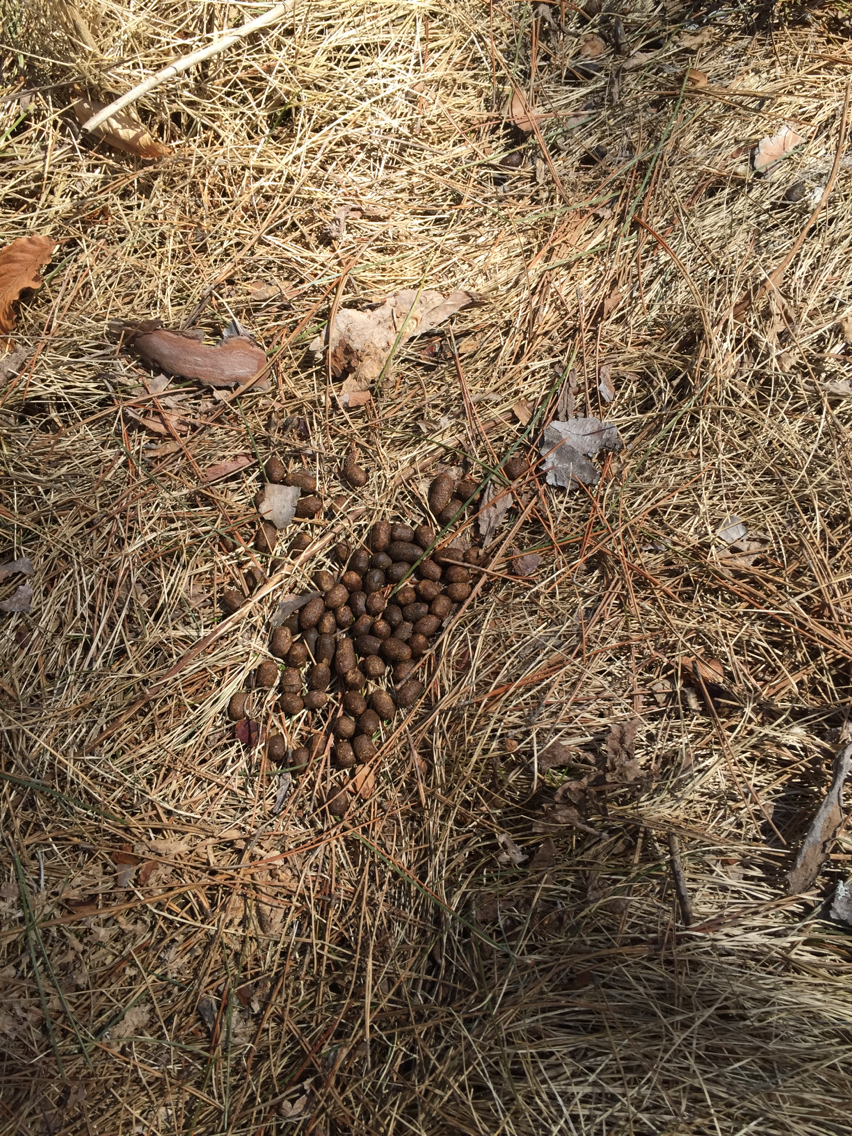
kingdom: Animalia
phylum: Chordata
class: Mammalia
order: Artiodactyla
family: Cervidae
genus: Odocoileus
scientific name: Odocoileus virginianus
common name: White-tailed deer
